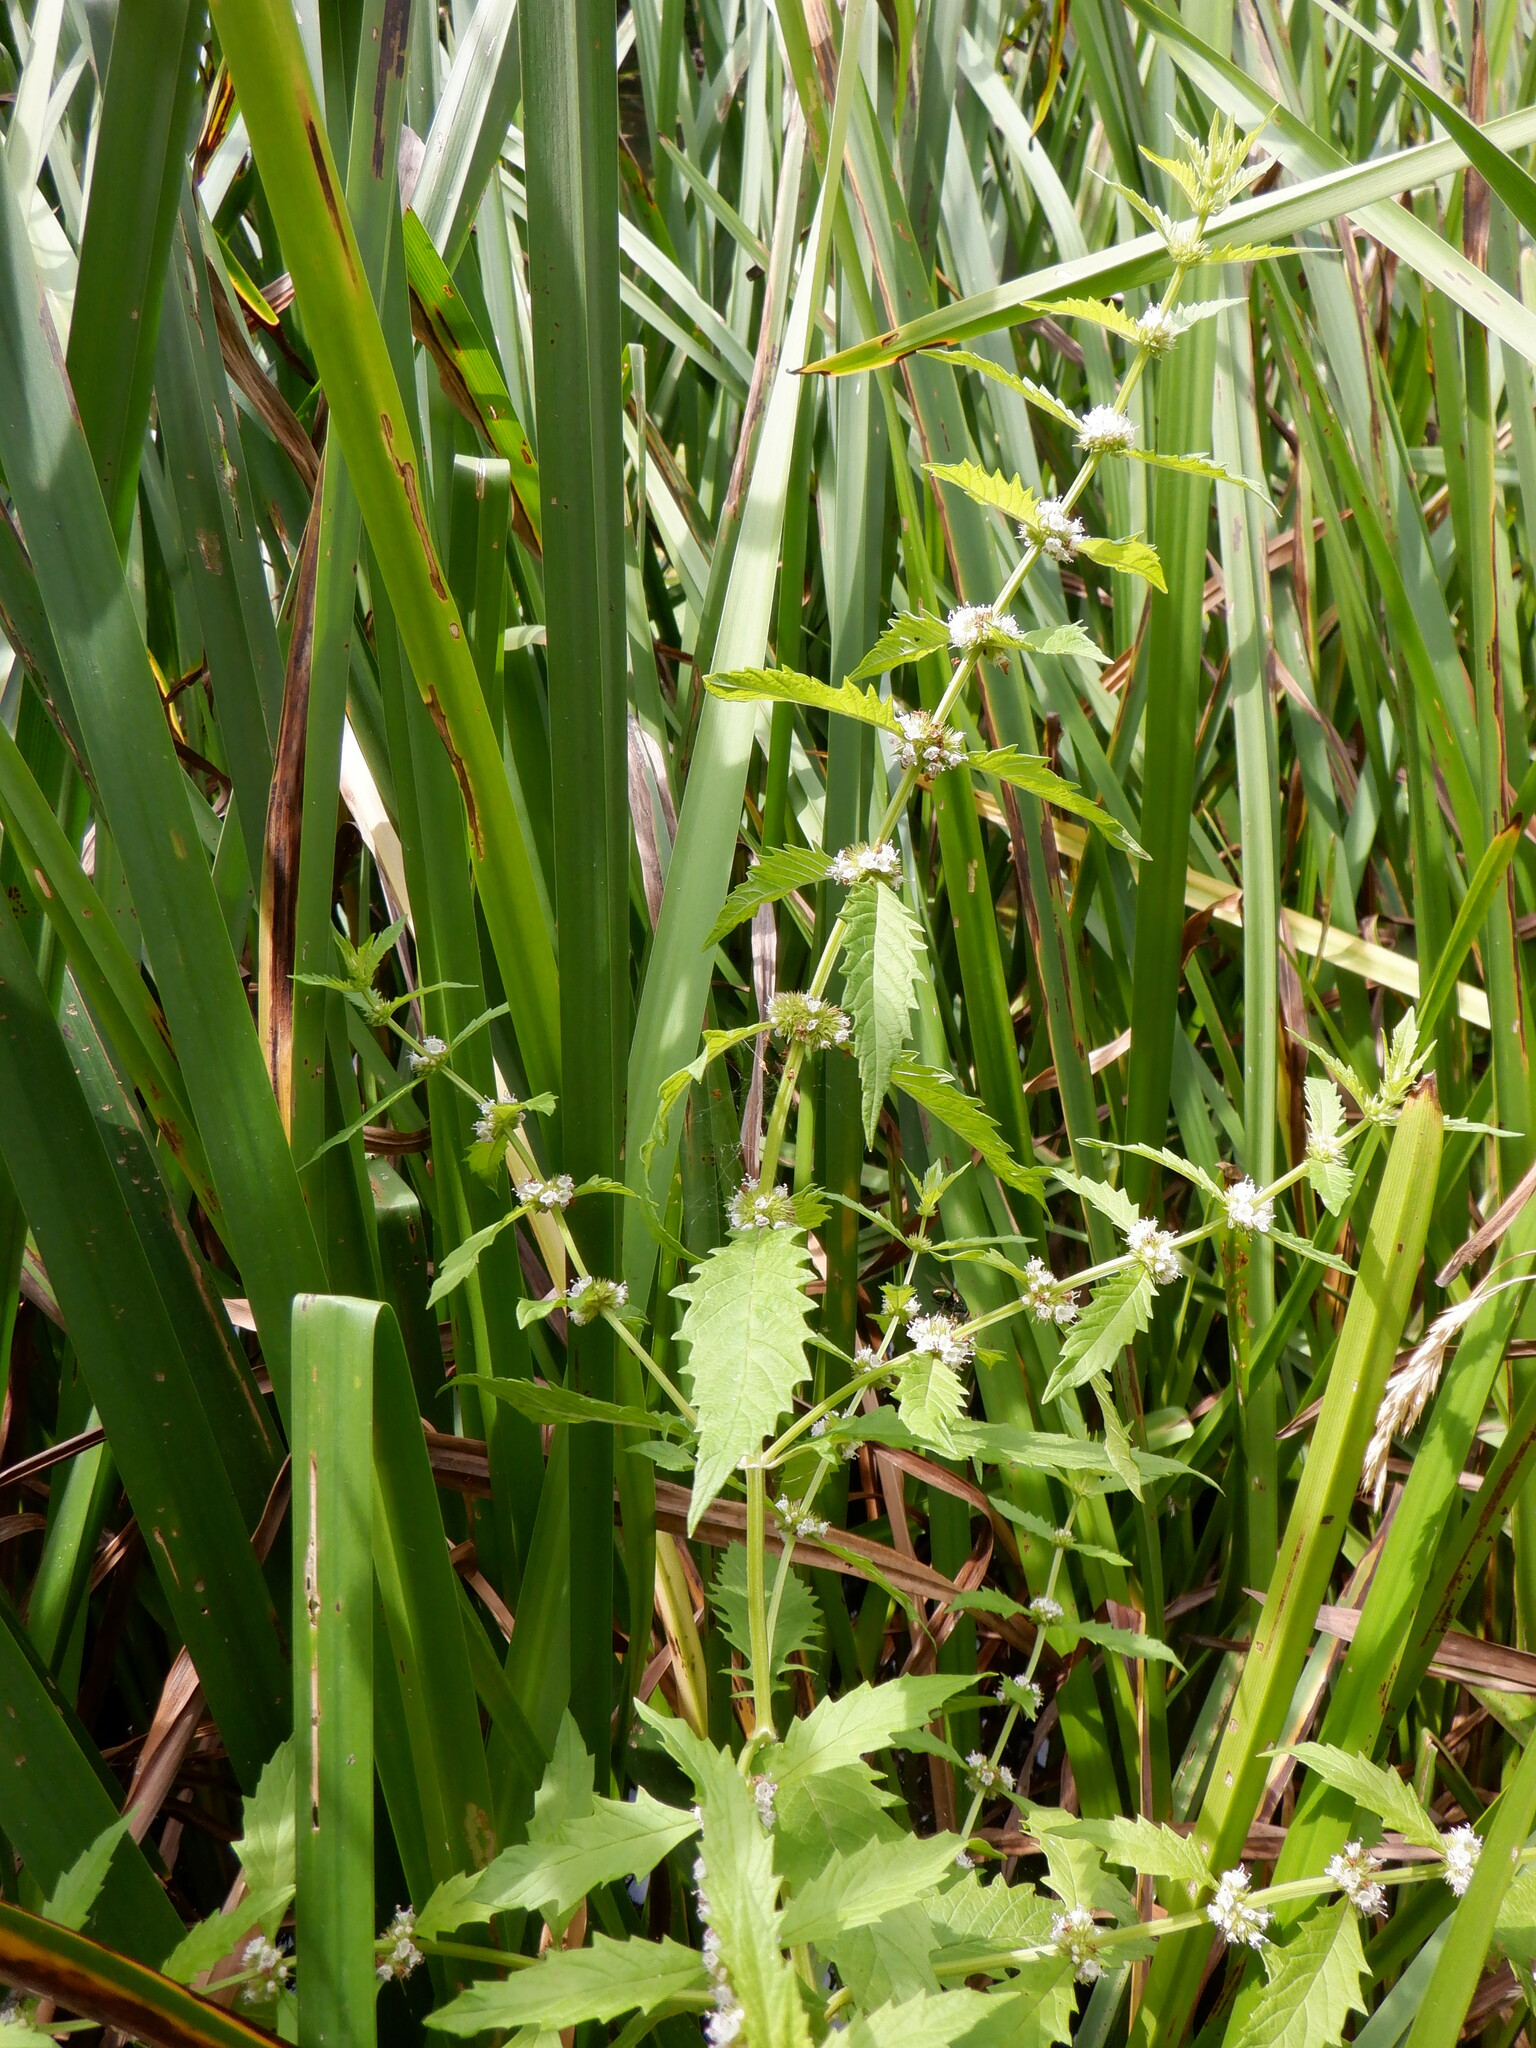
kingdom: Plantae
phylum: Tracheophyta
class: Magnoliopsida
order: Lamiales
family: Lamiaceae
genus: Lycopus
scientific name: Lycopus europaeus
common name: European bugleweed
